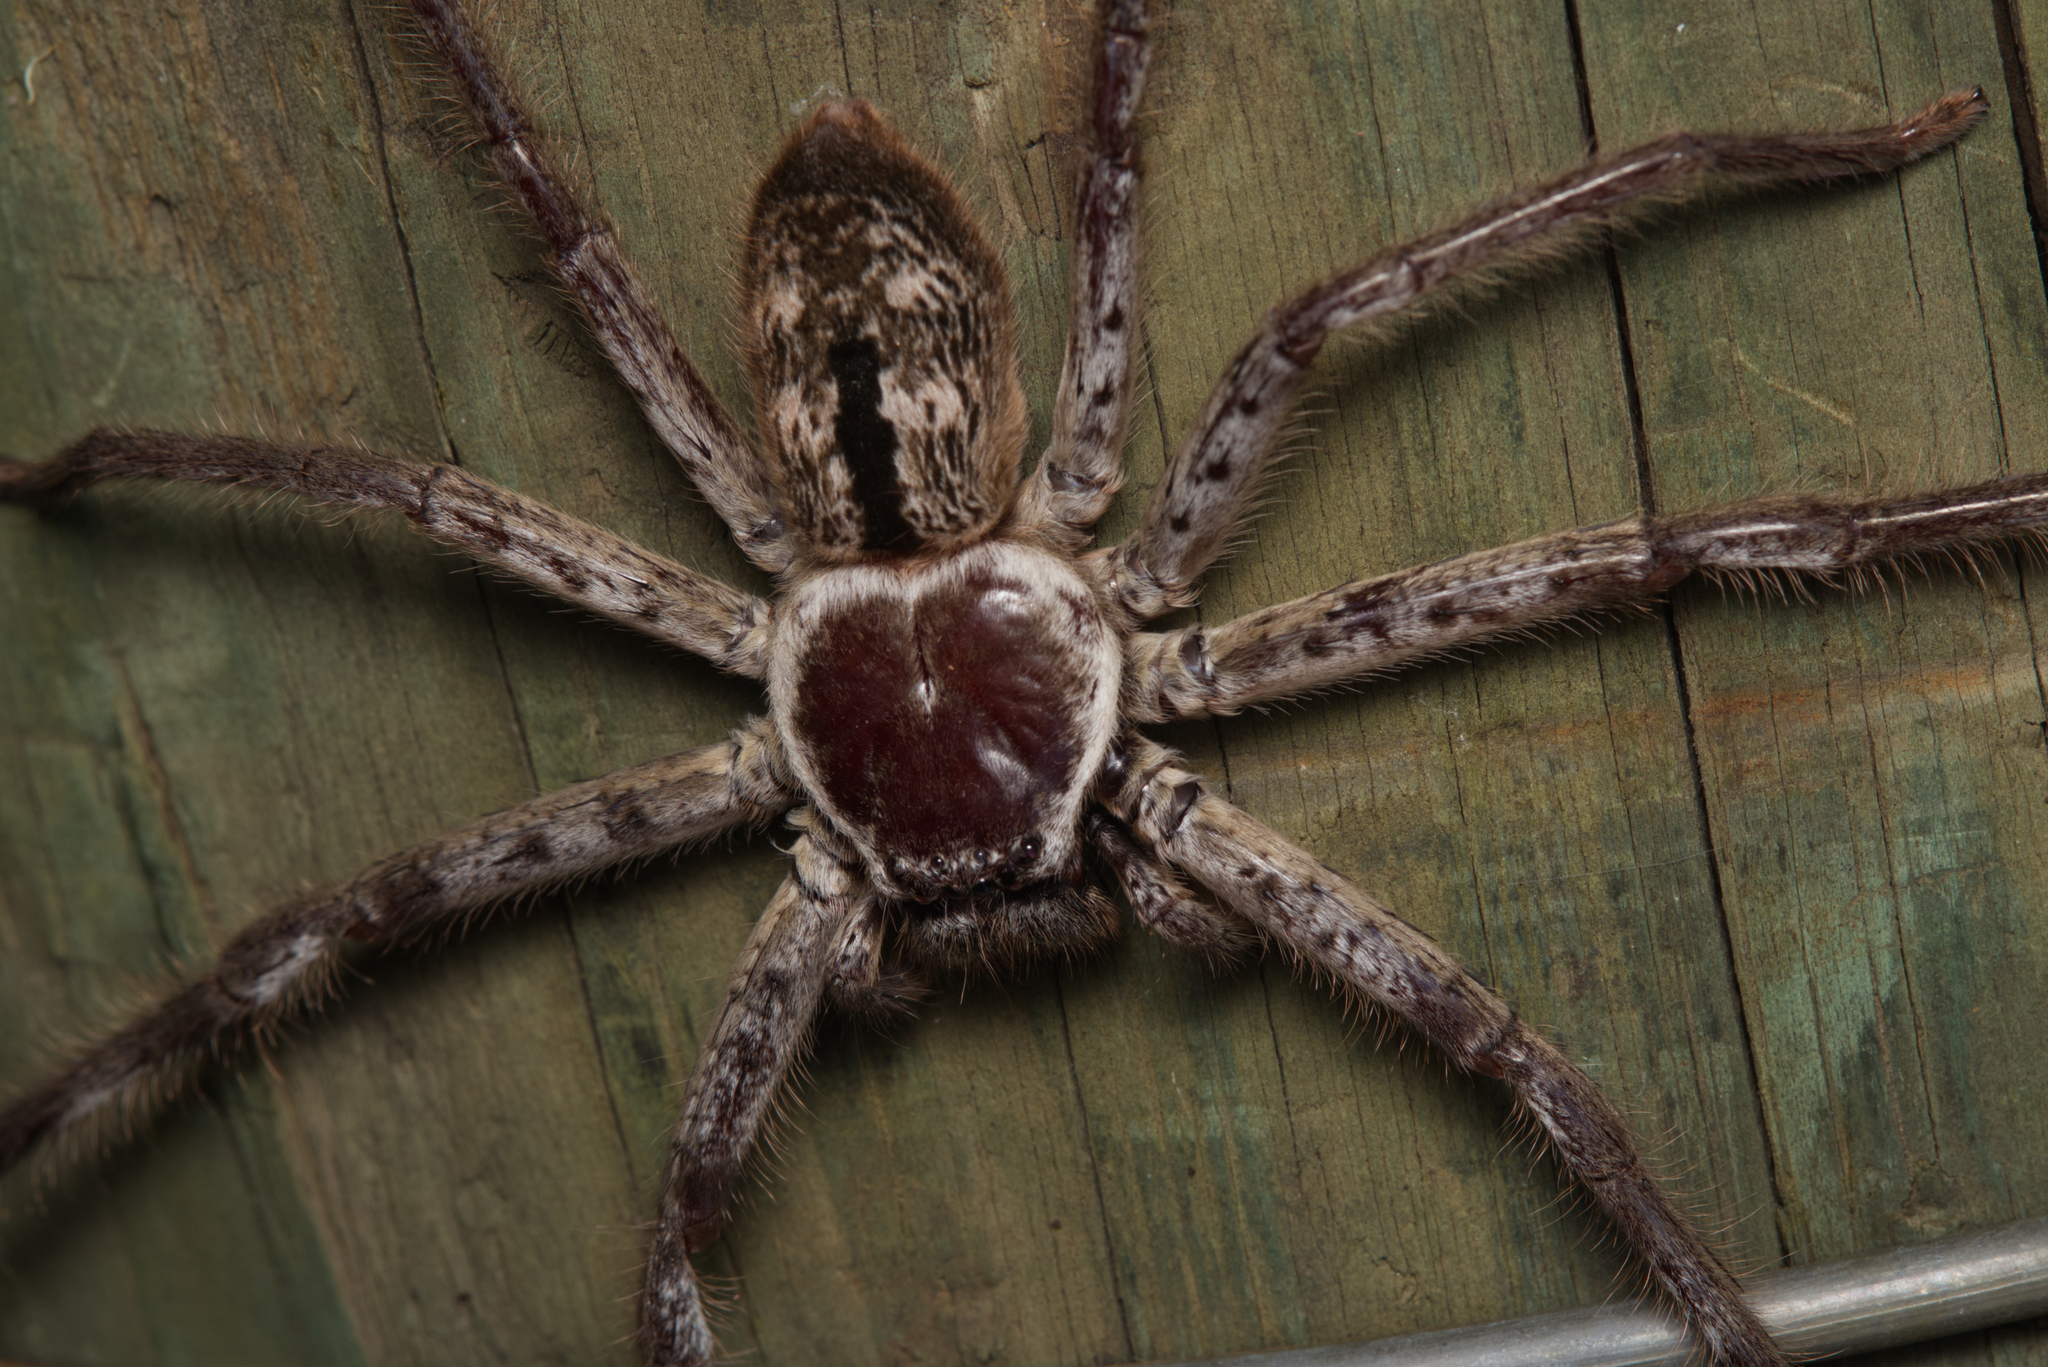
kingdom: Animalia
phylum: Arthropoda
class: Arachnida
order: Araneae
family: Sparassidae
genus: Holconia
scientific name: Holconia immanis
